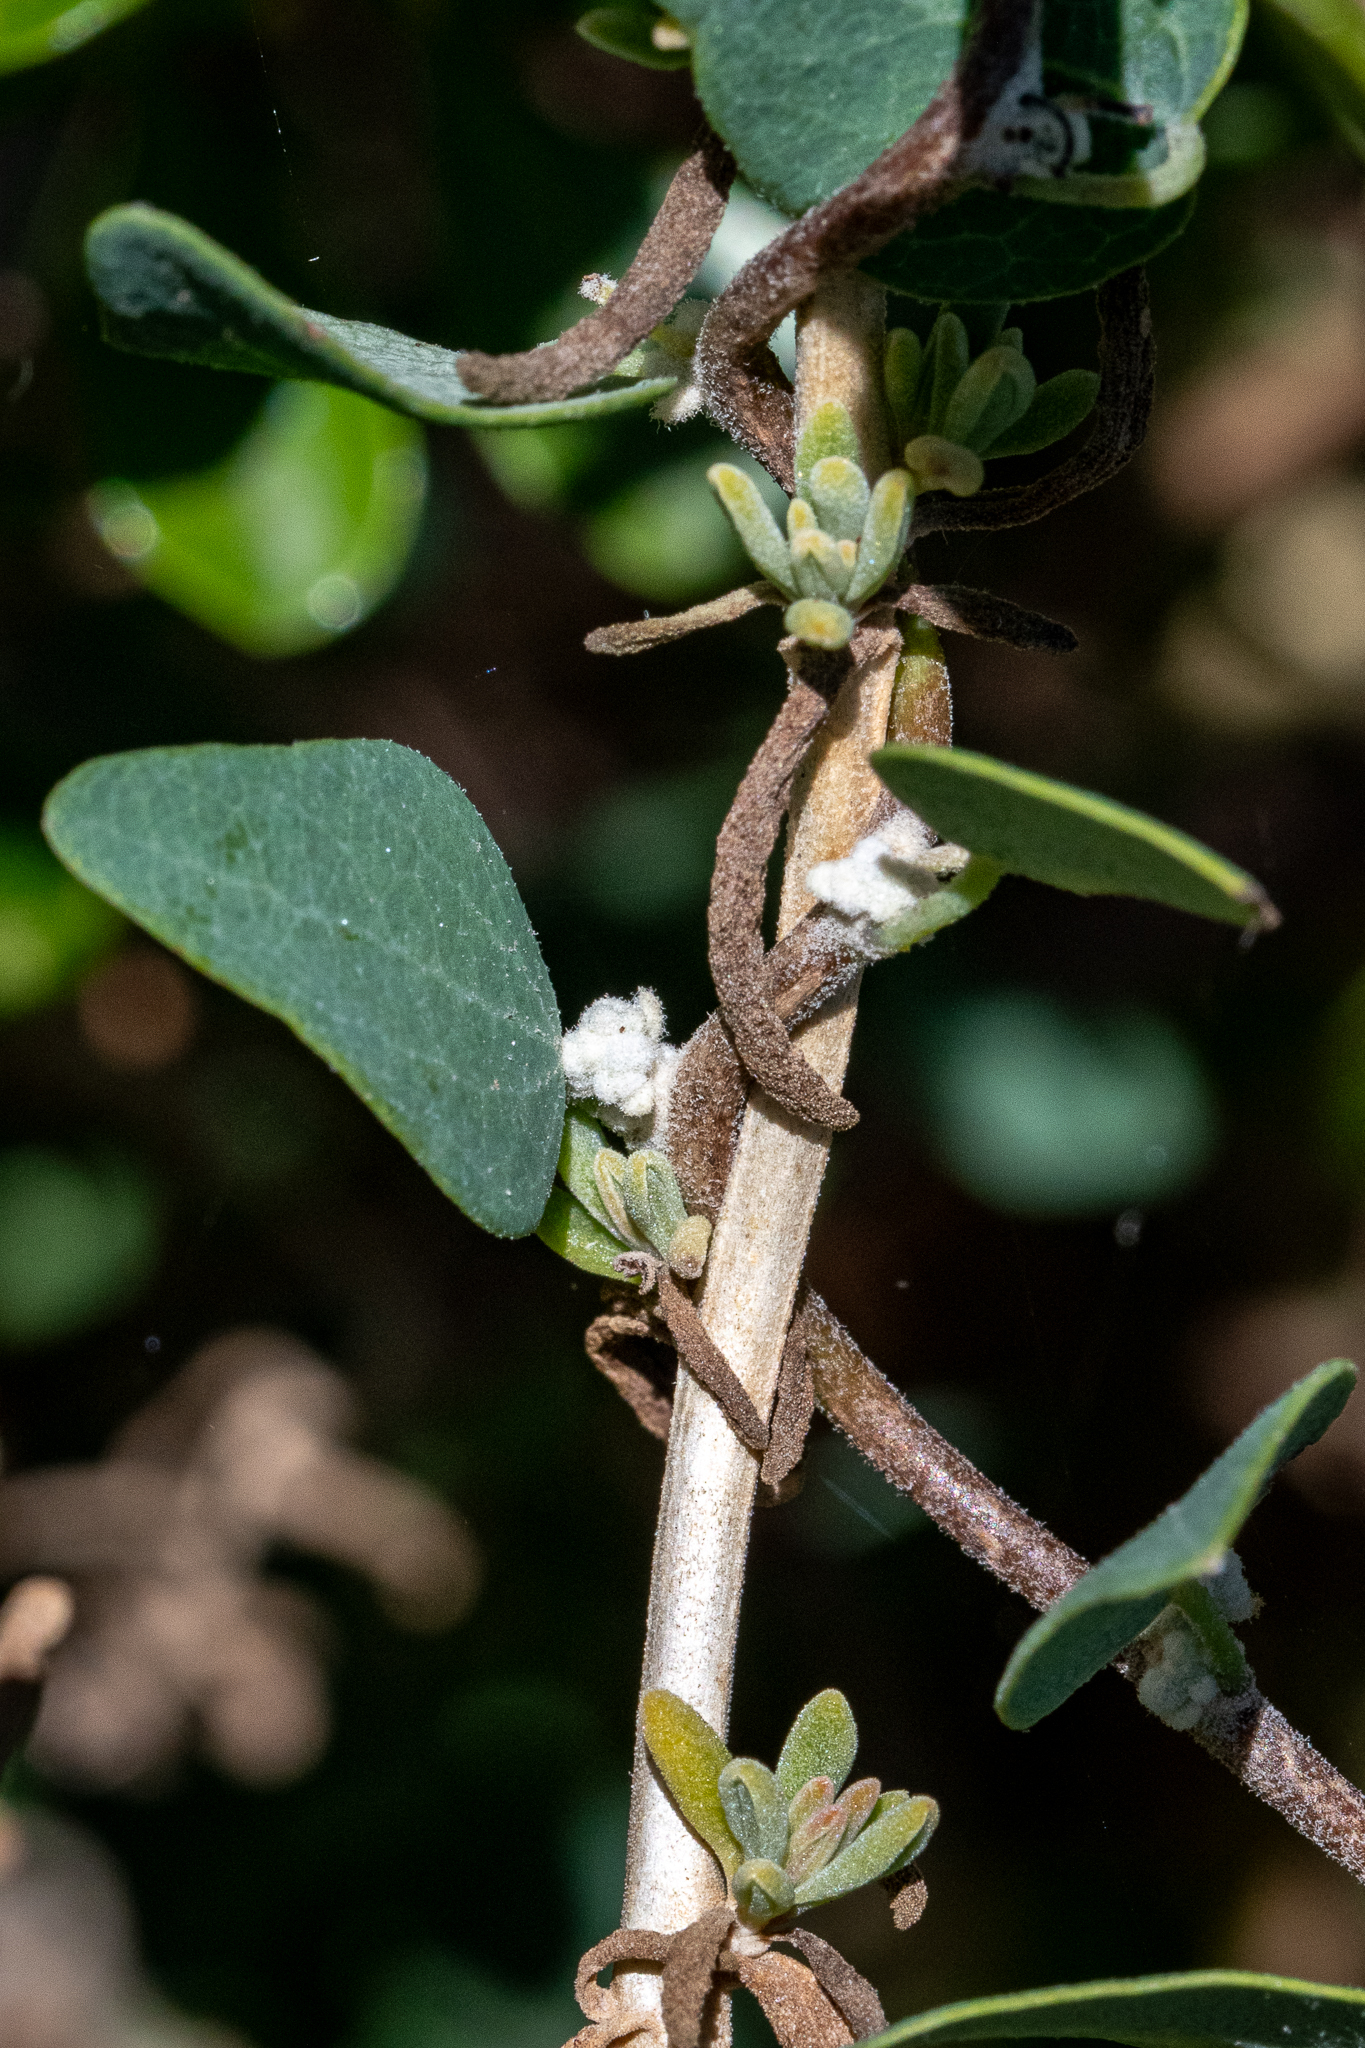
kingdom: Plantae
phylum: Tracheophyta
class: Magnoliopsida
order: Ranunculales
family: Menispermaceae
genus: Cissampelos
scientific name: Cissampelos capensis
